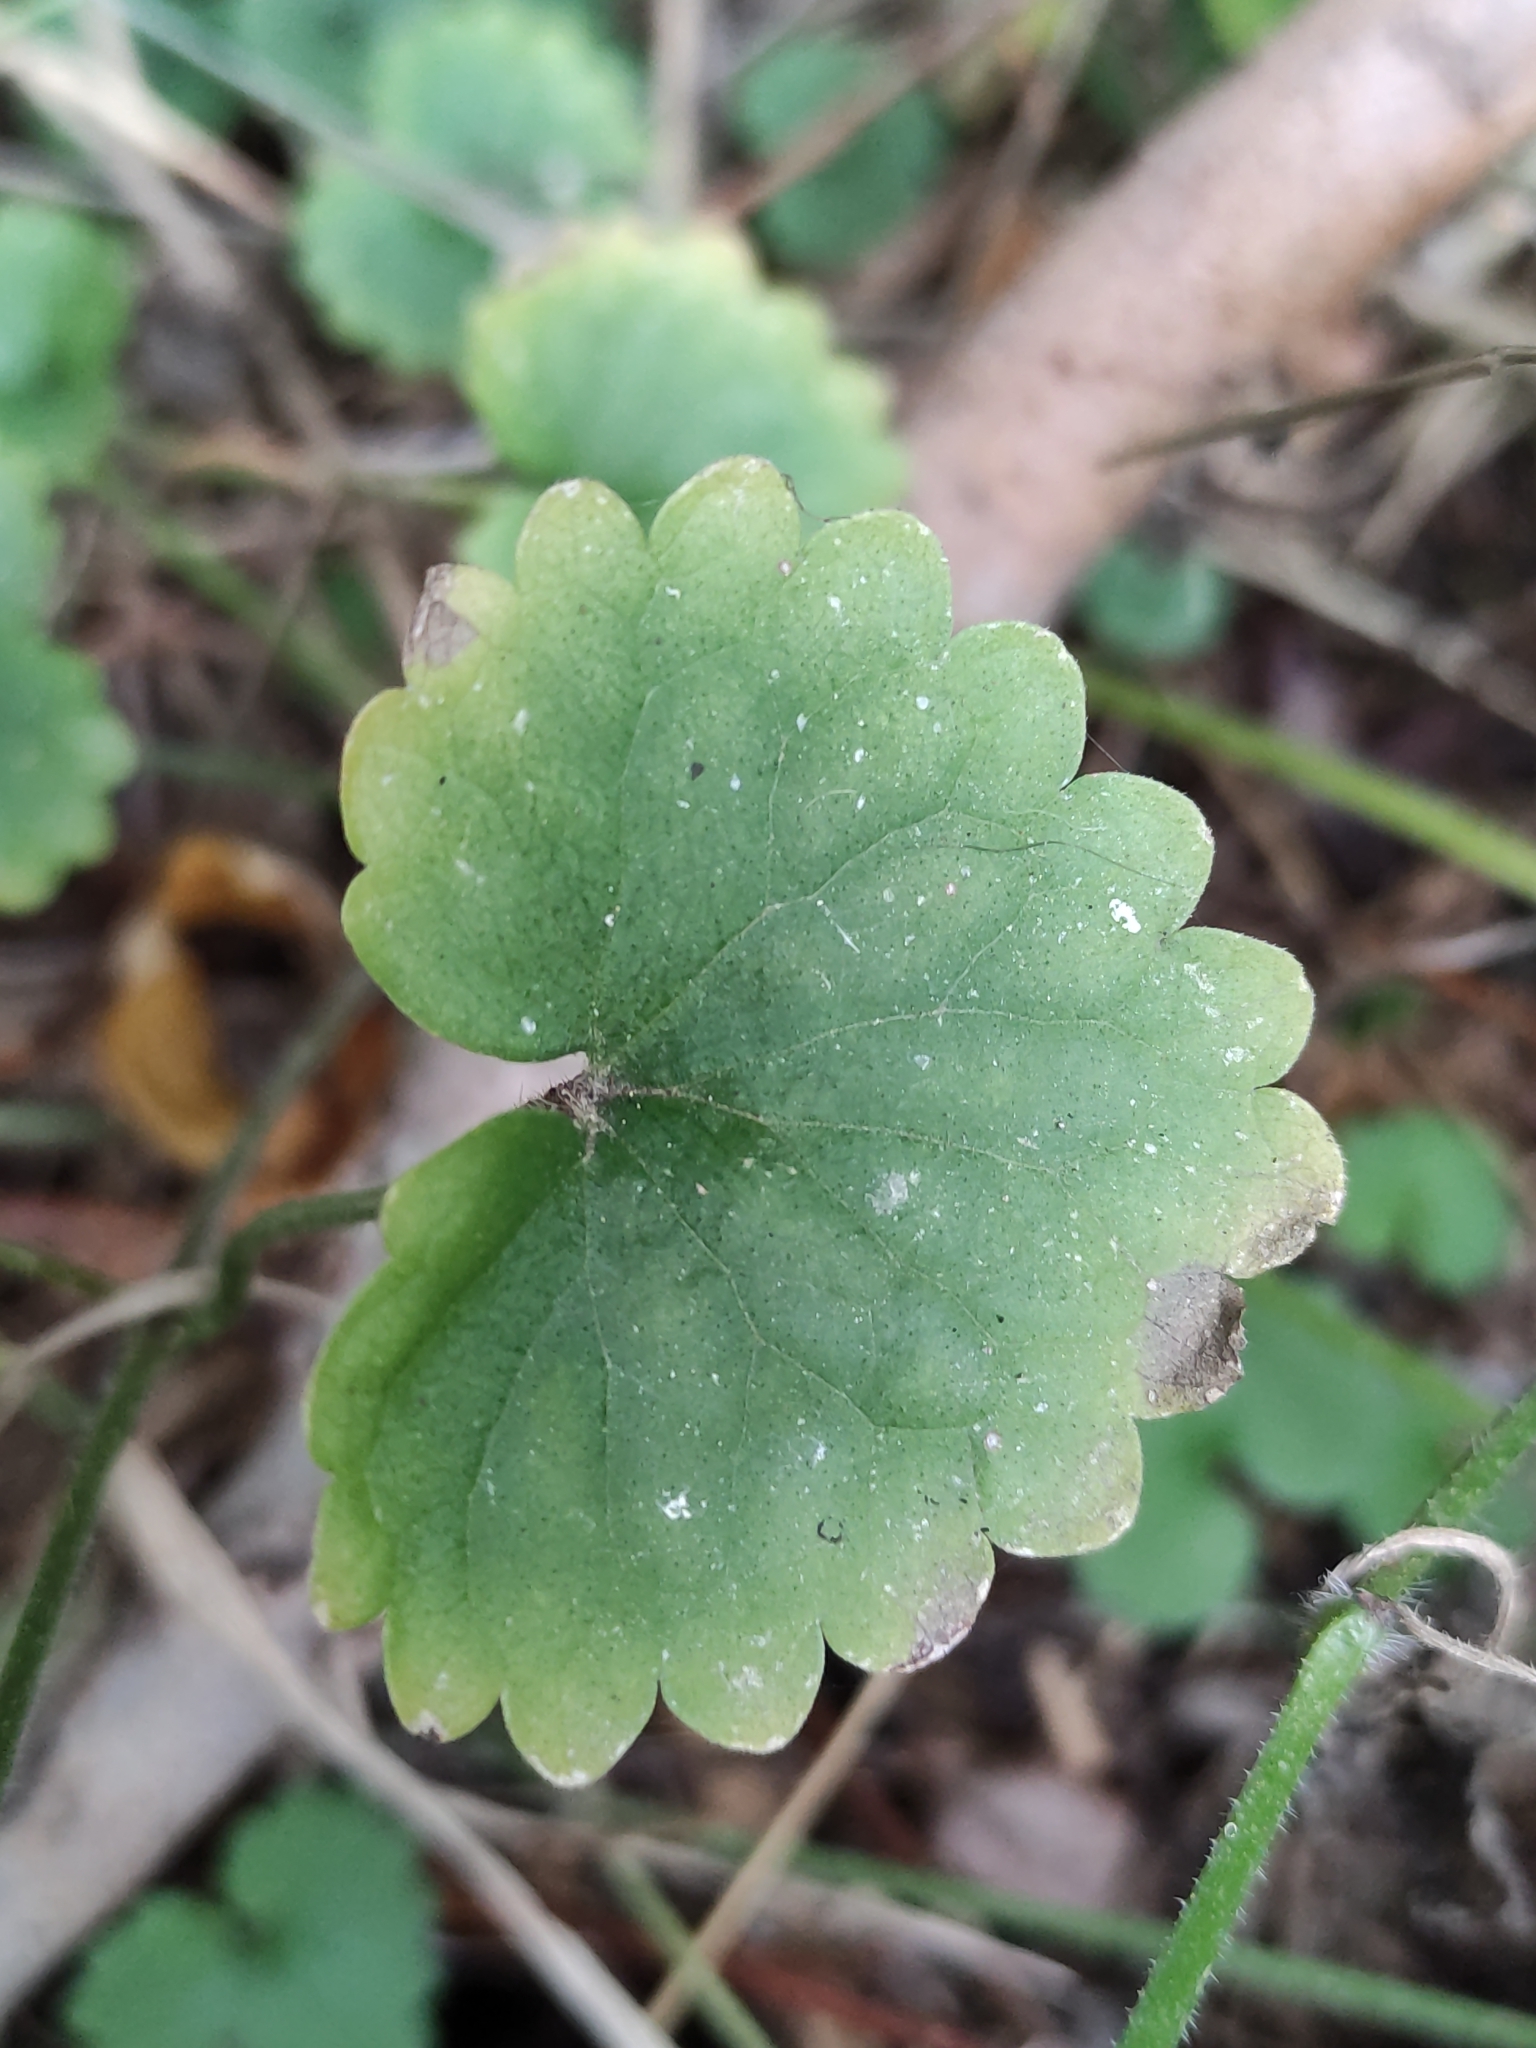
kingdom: Plantae
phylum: Tracheophyta
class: Magnoliopsida
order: Lamiales
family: Lamiaceae
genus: Glechoma
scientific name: Glechoma hederacea
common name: Ground ivy
